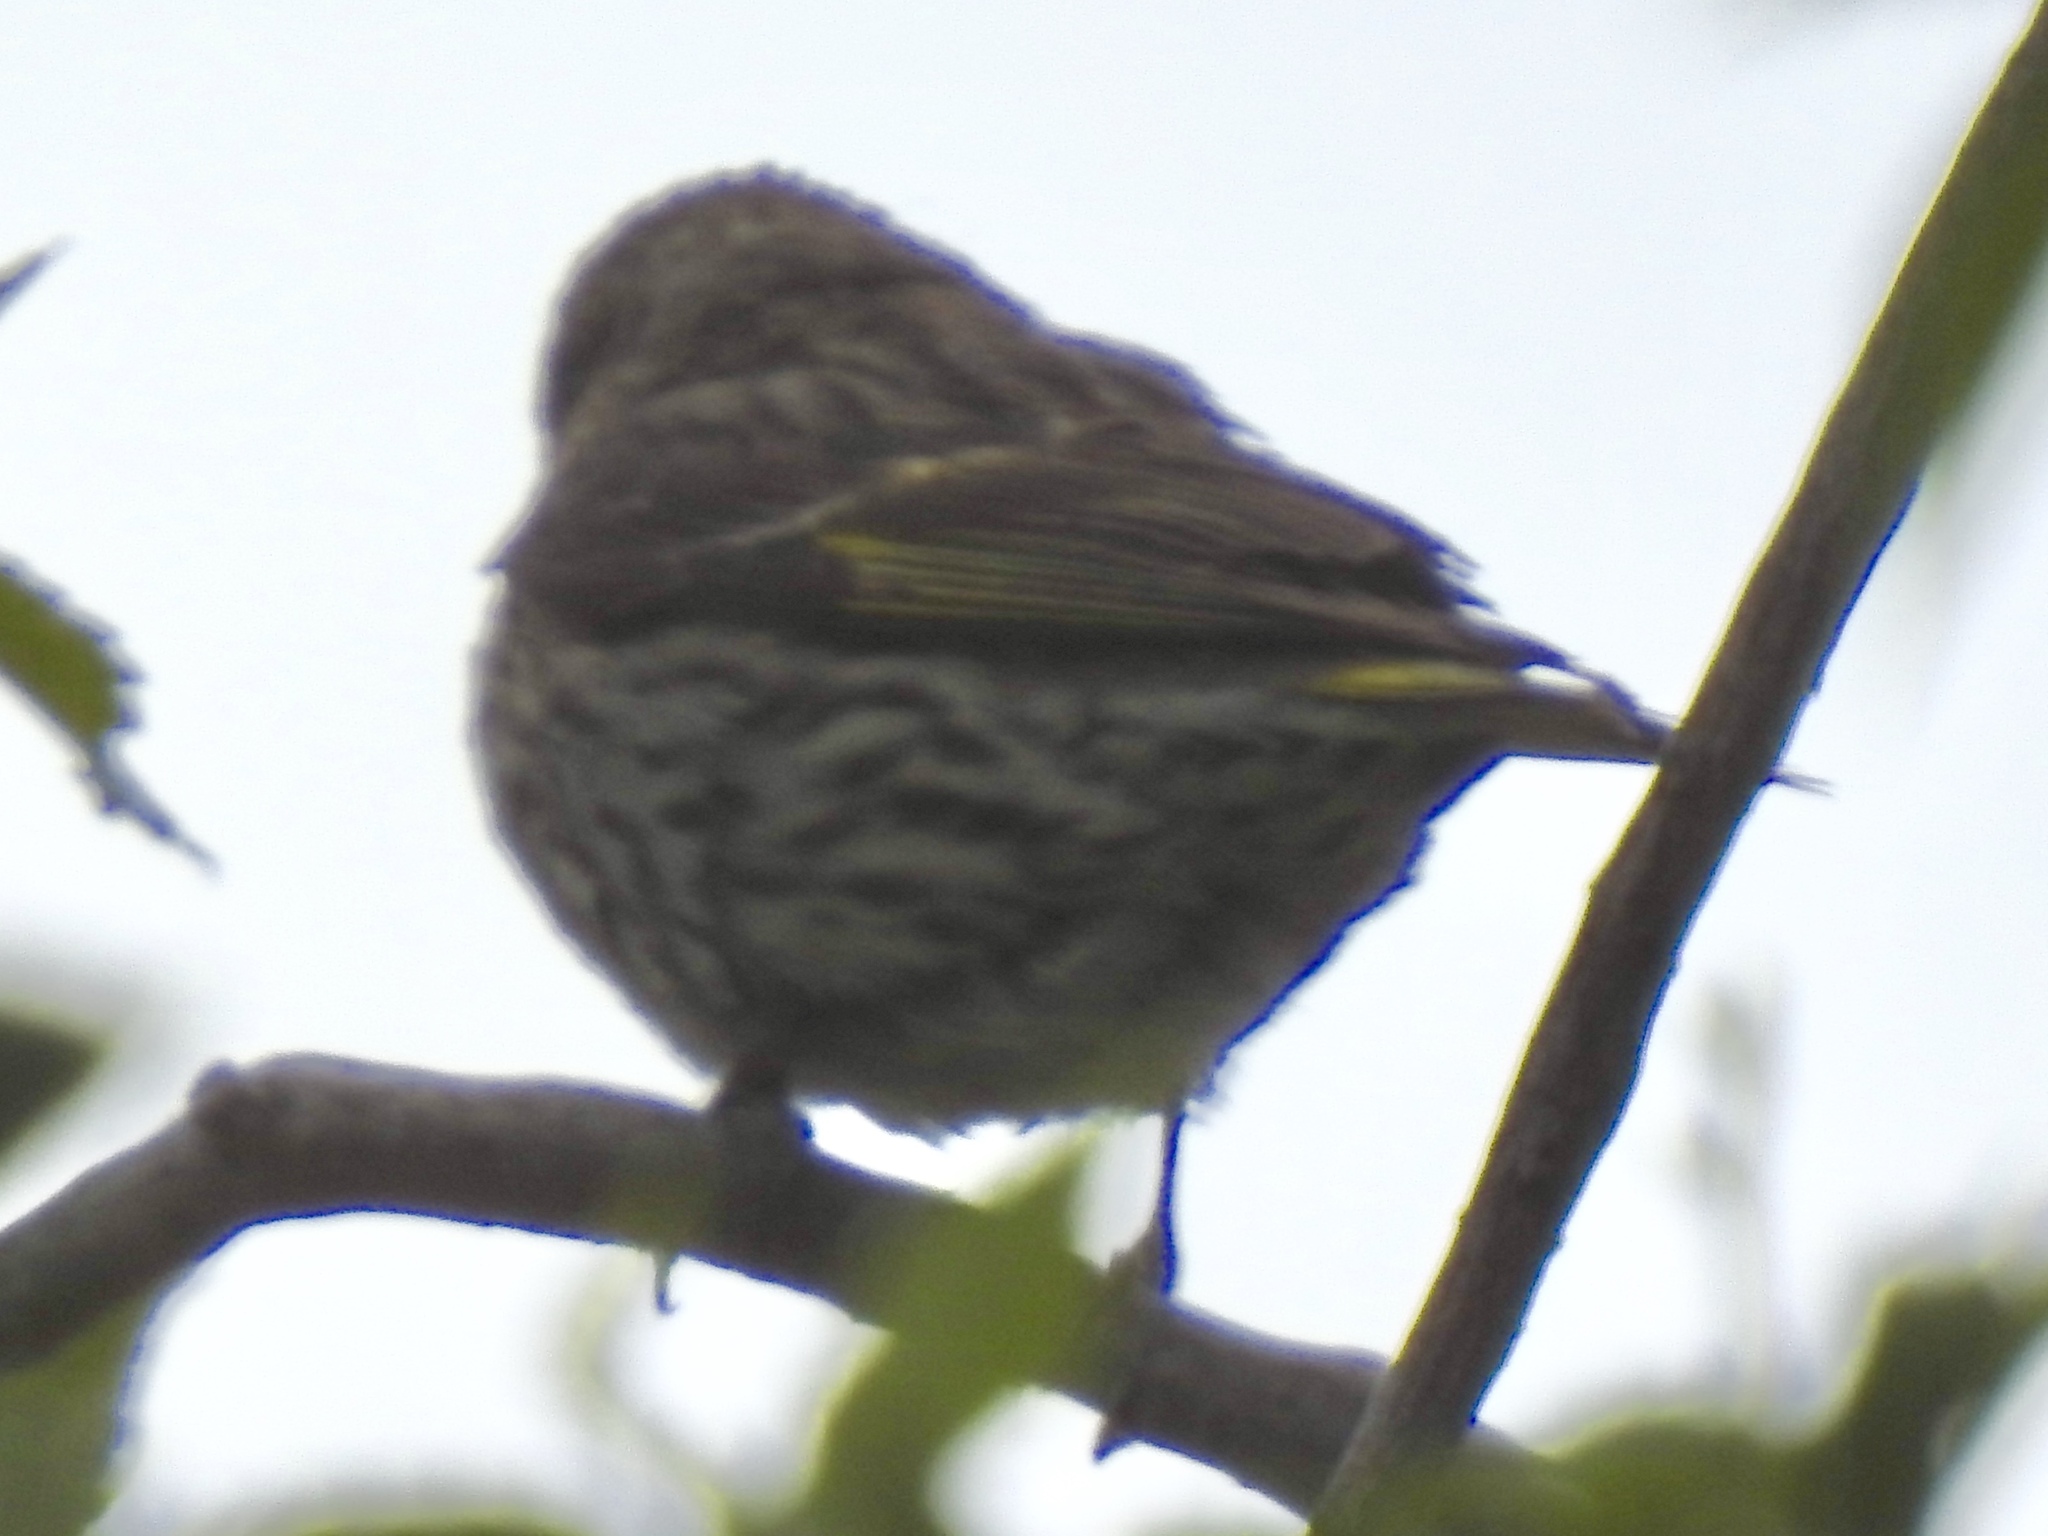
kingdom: Animalia
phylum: Chordata
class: Aves
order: Passeriformes
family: Fringillidae
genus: Spinus
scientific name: Spinus pinus
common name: Pine siskin
